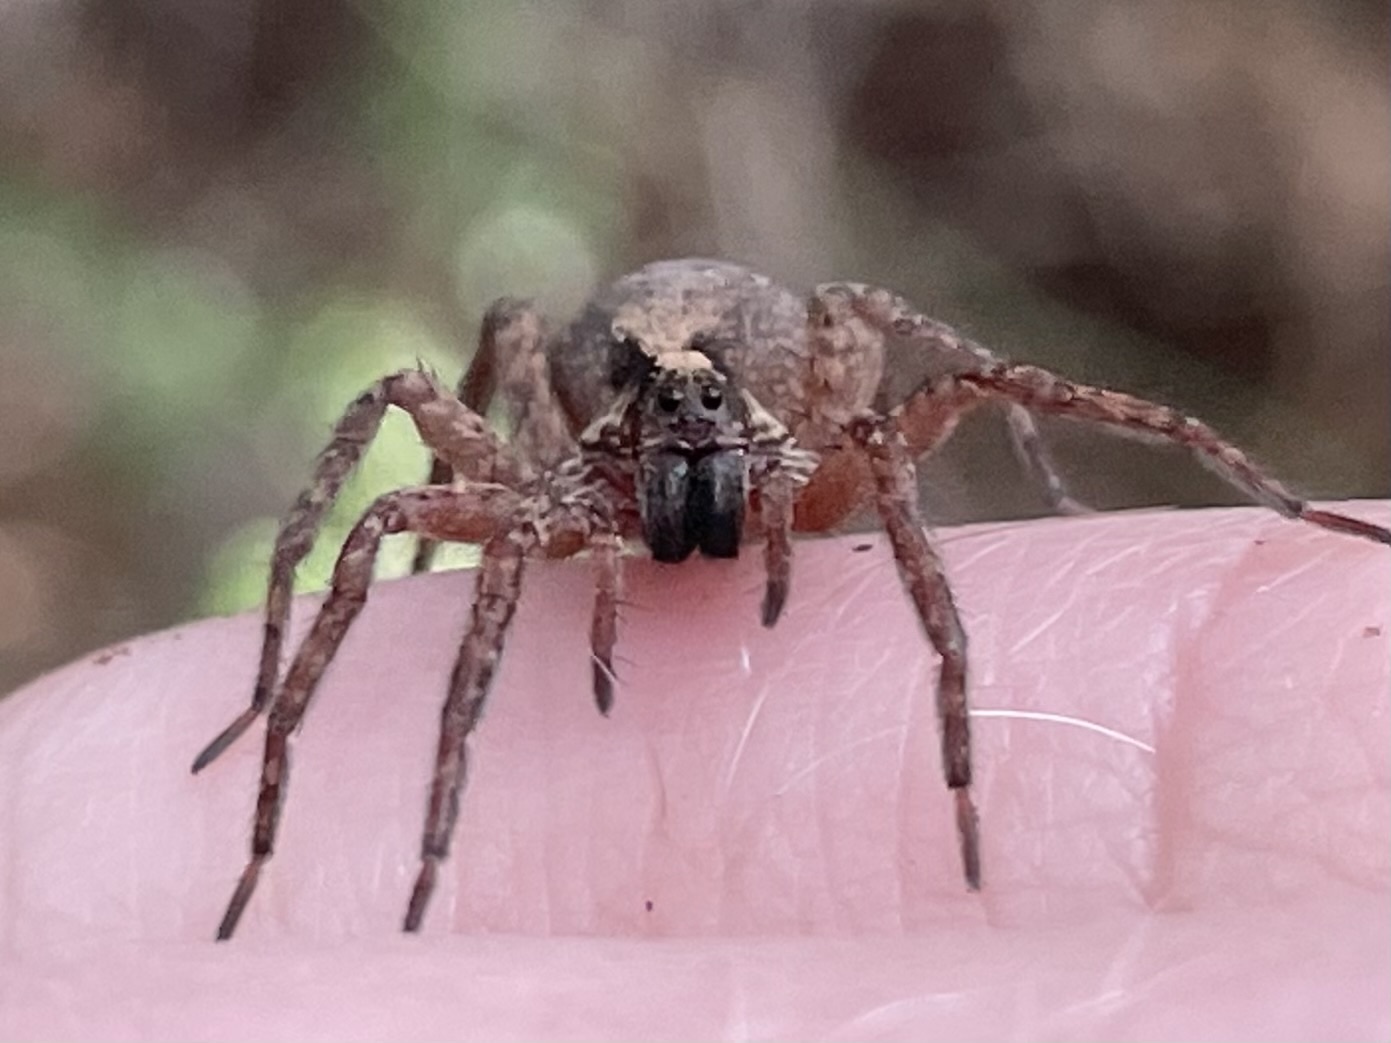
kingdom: Animalia
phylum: Arthropoda
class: Arachnida
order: Araneae
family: Lycosidae
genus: Schizocosa
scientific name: Schizocosa rovneri
